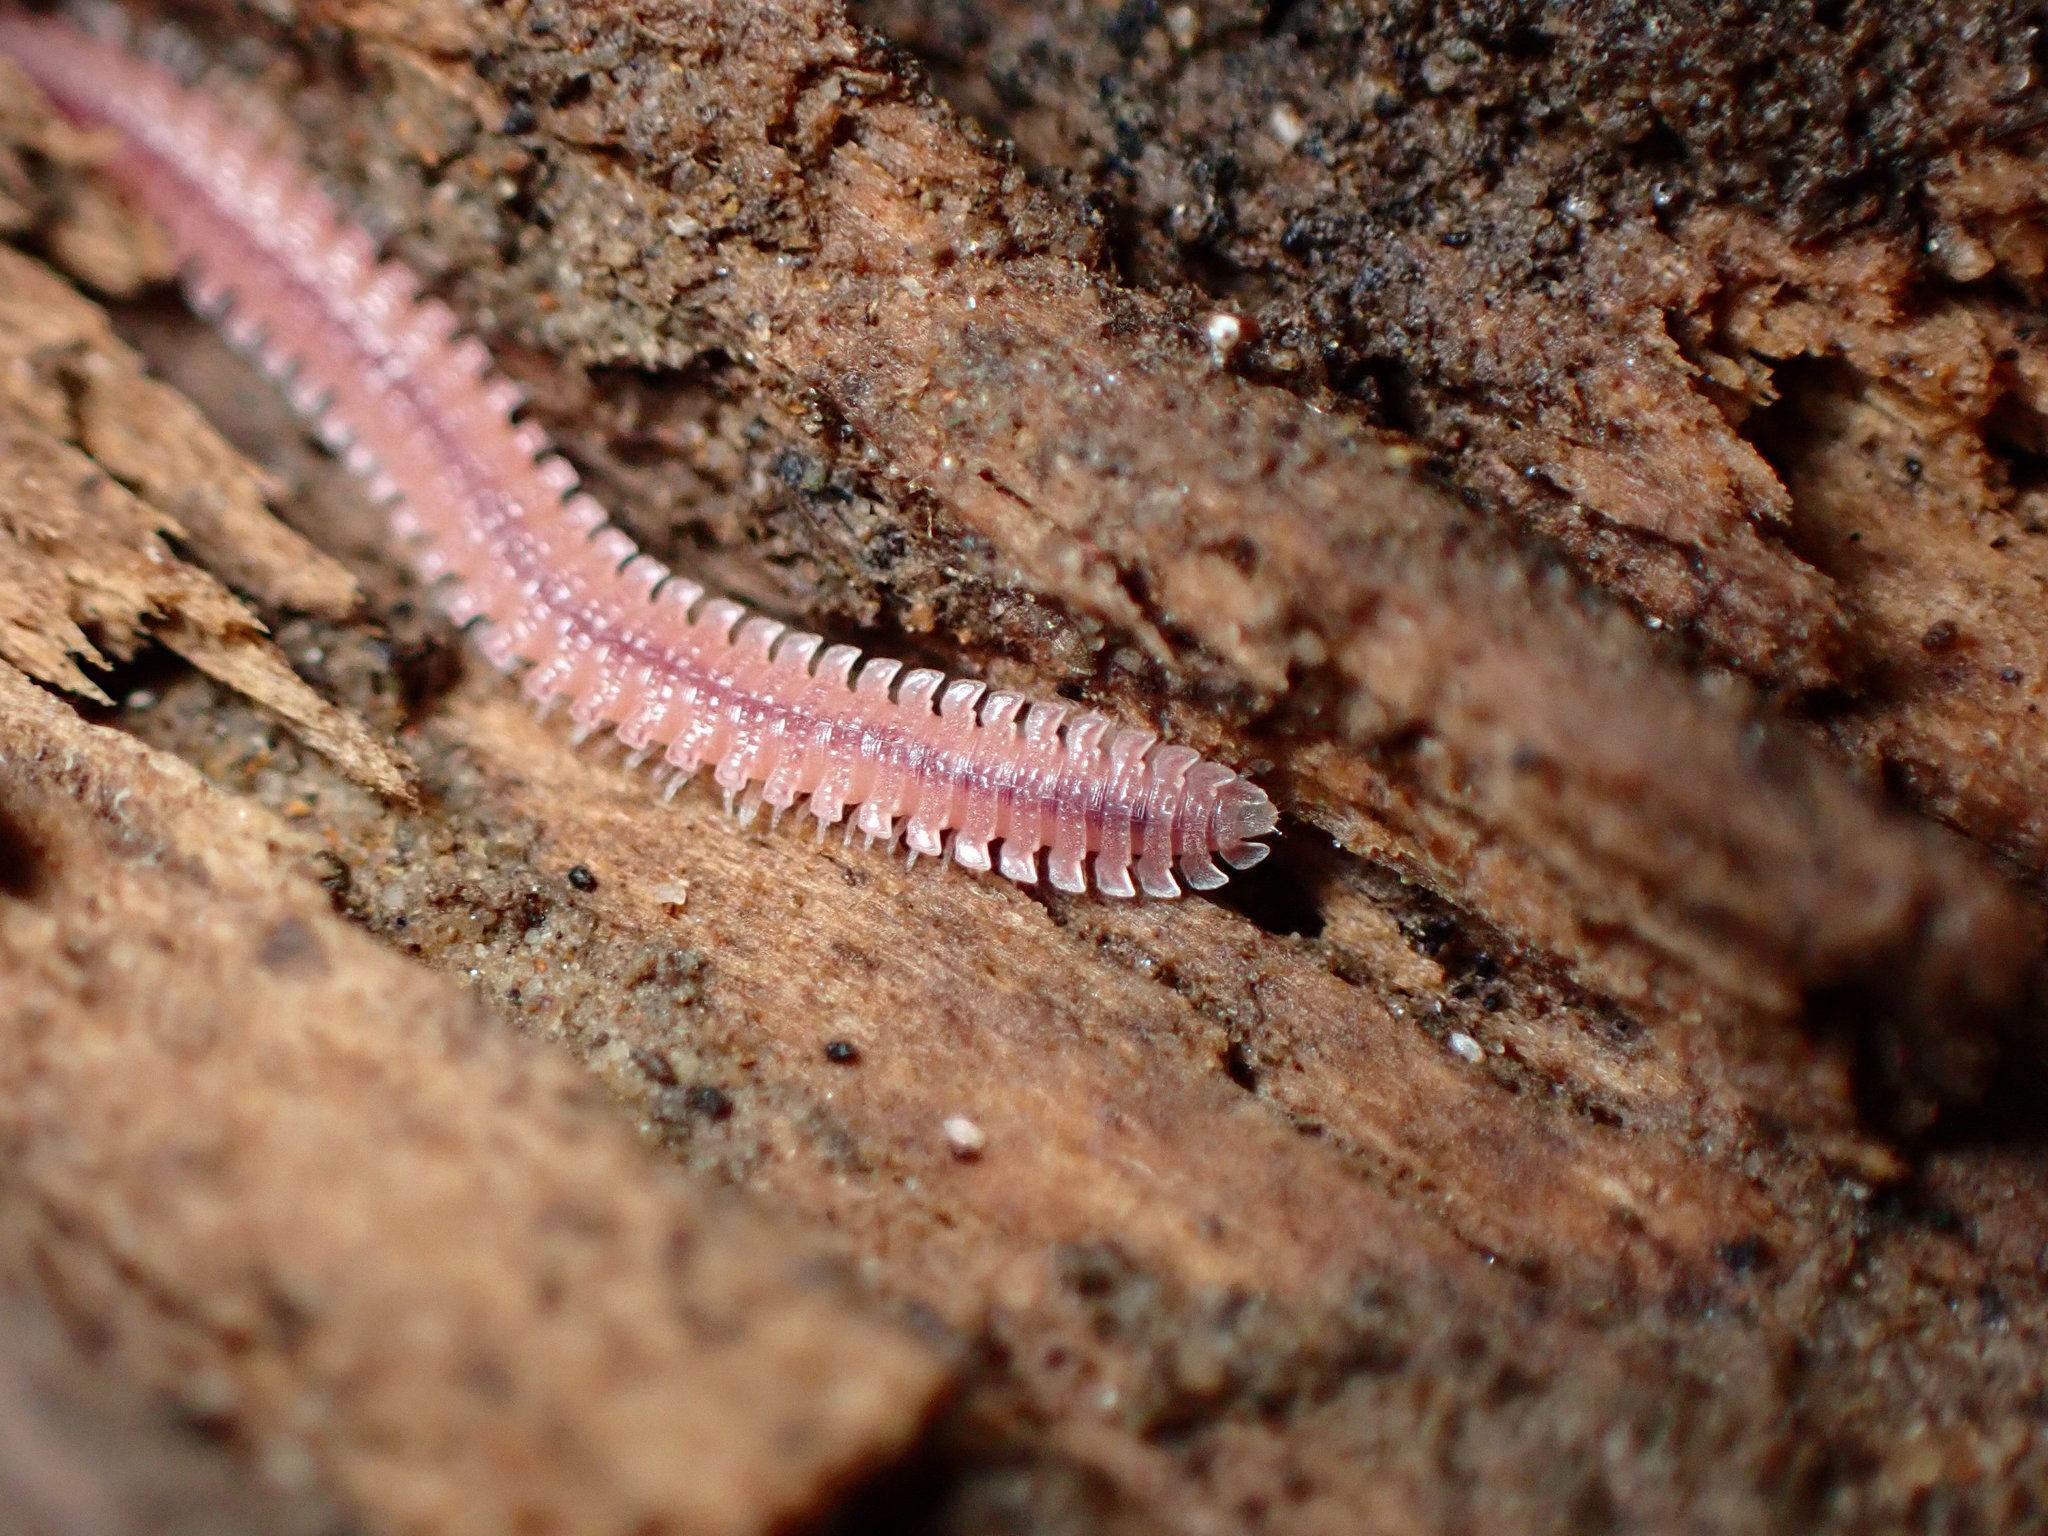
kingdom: Animalia
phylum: Arthropoda
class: Diplopoda
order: Platydesmida
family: Andrognathidae
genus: Gosodesmus
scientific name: Gosodesmus claremontus
